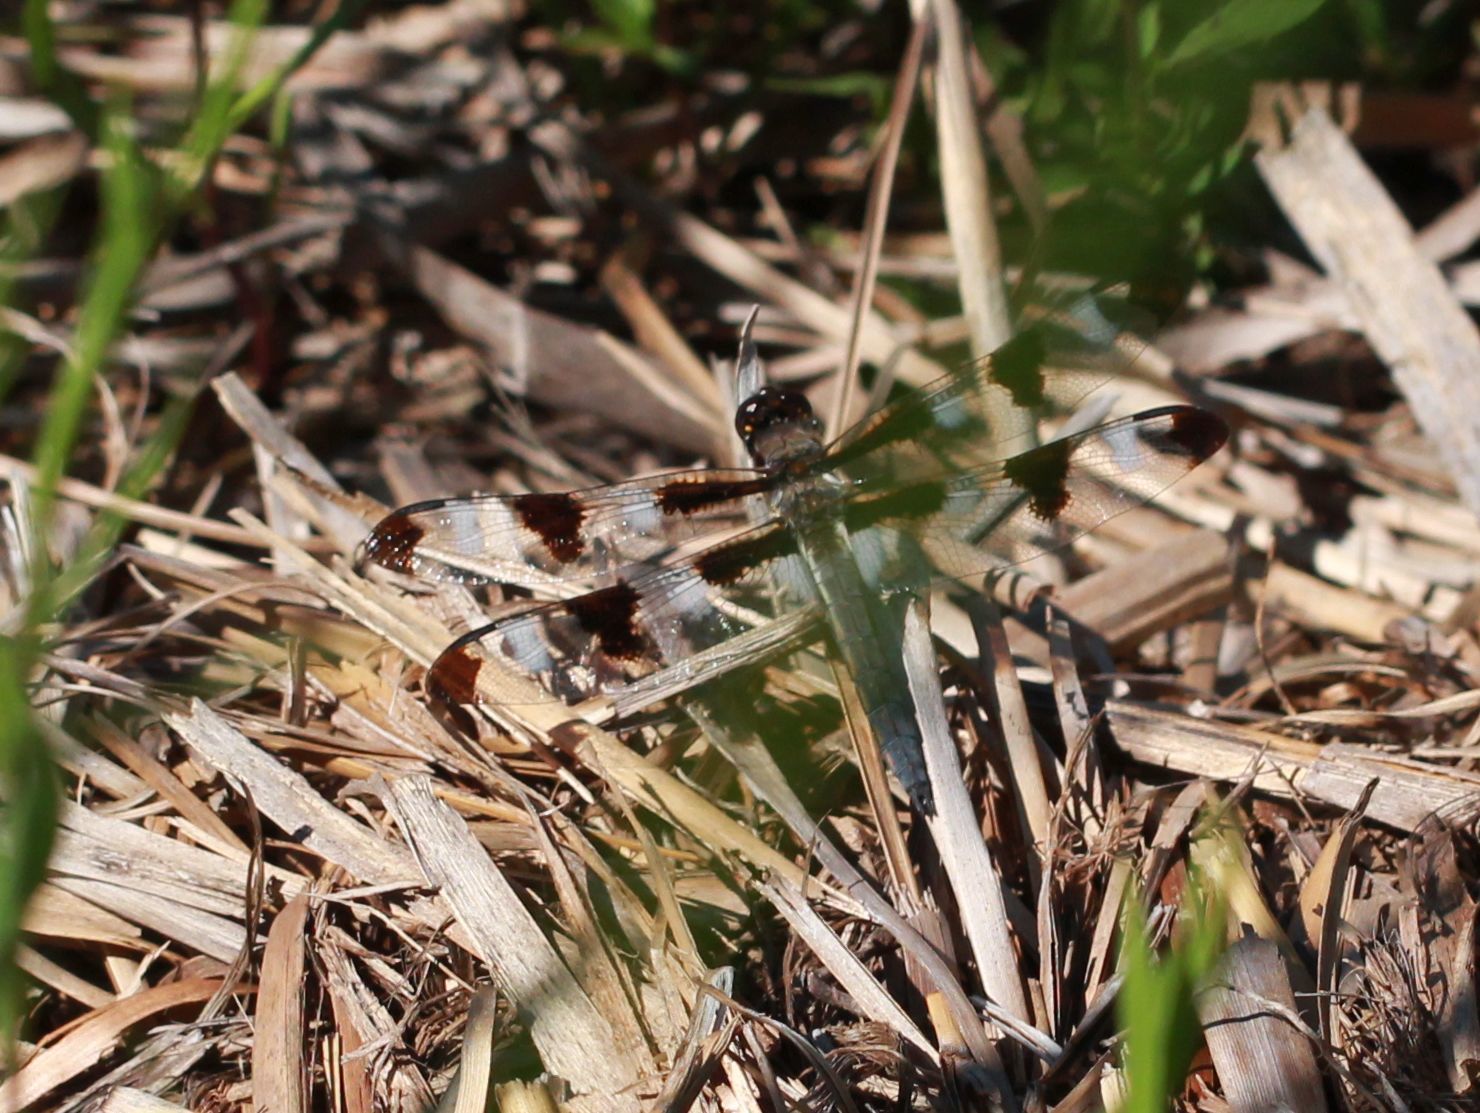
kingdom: Animalia
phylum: Arthropoda
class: Insecta
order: Odonata
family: Libellulidae
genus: Libellula
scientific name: Libellula pulchella
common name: Twelve-spotted skimmer
